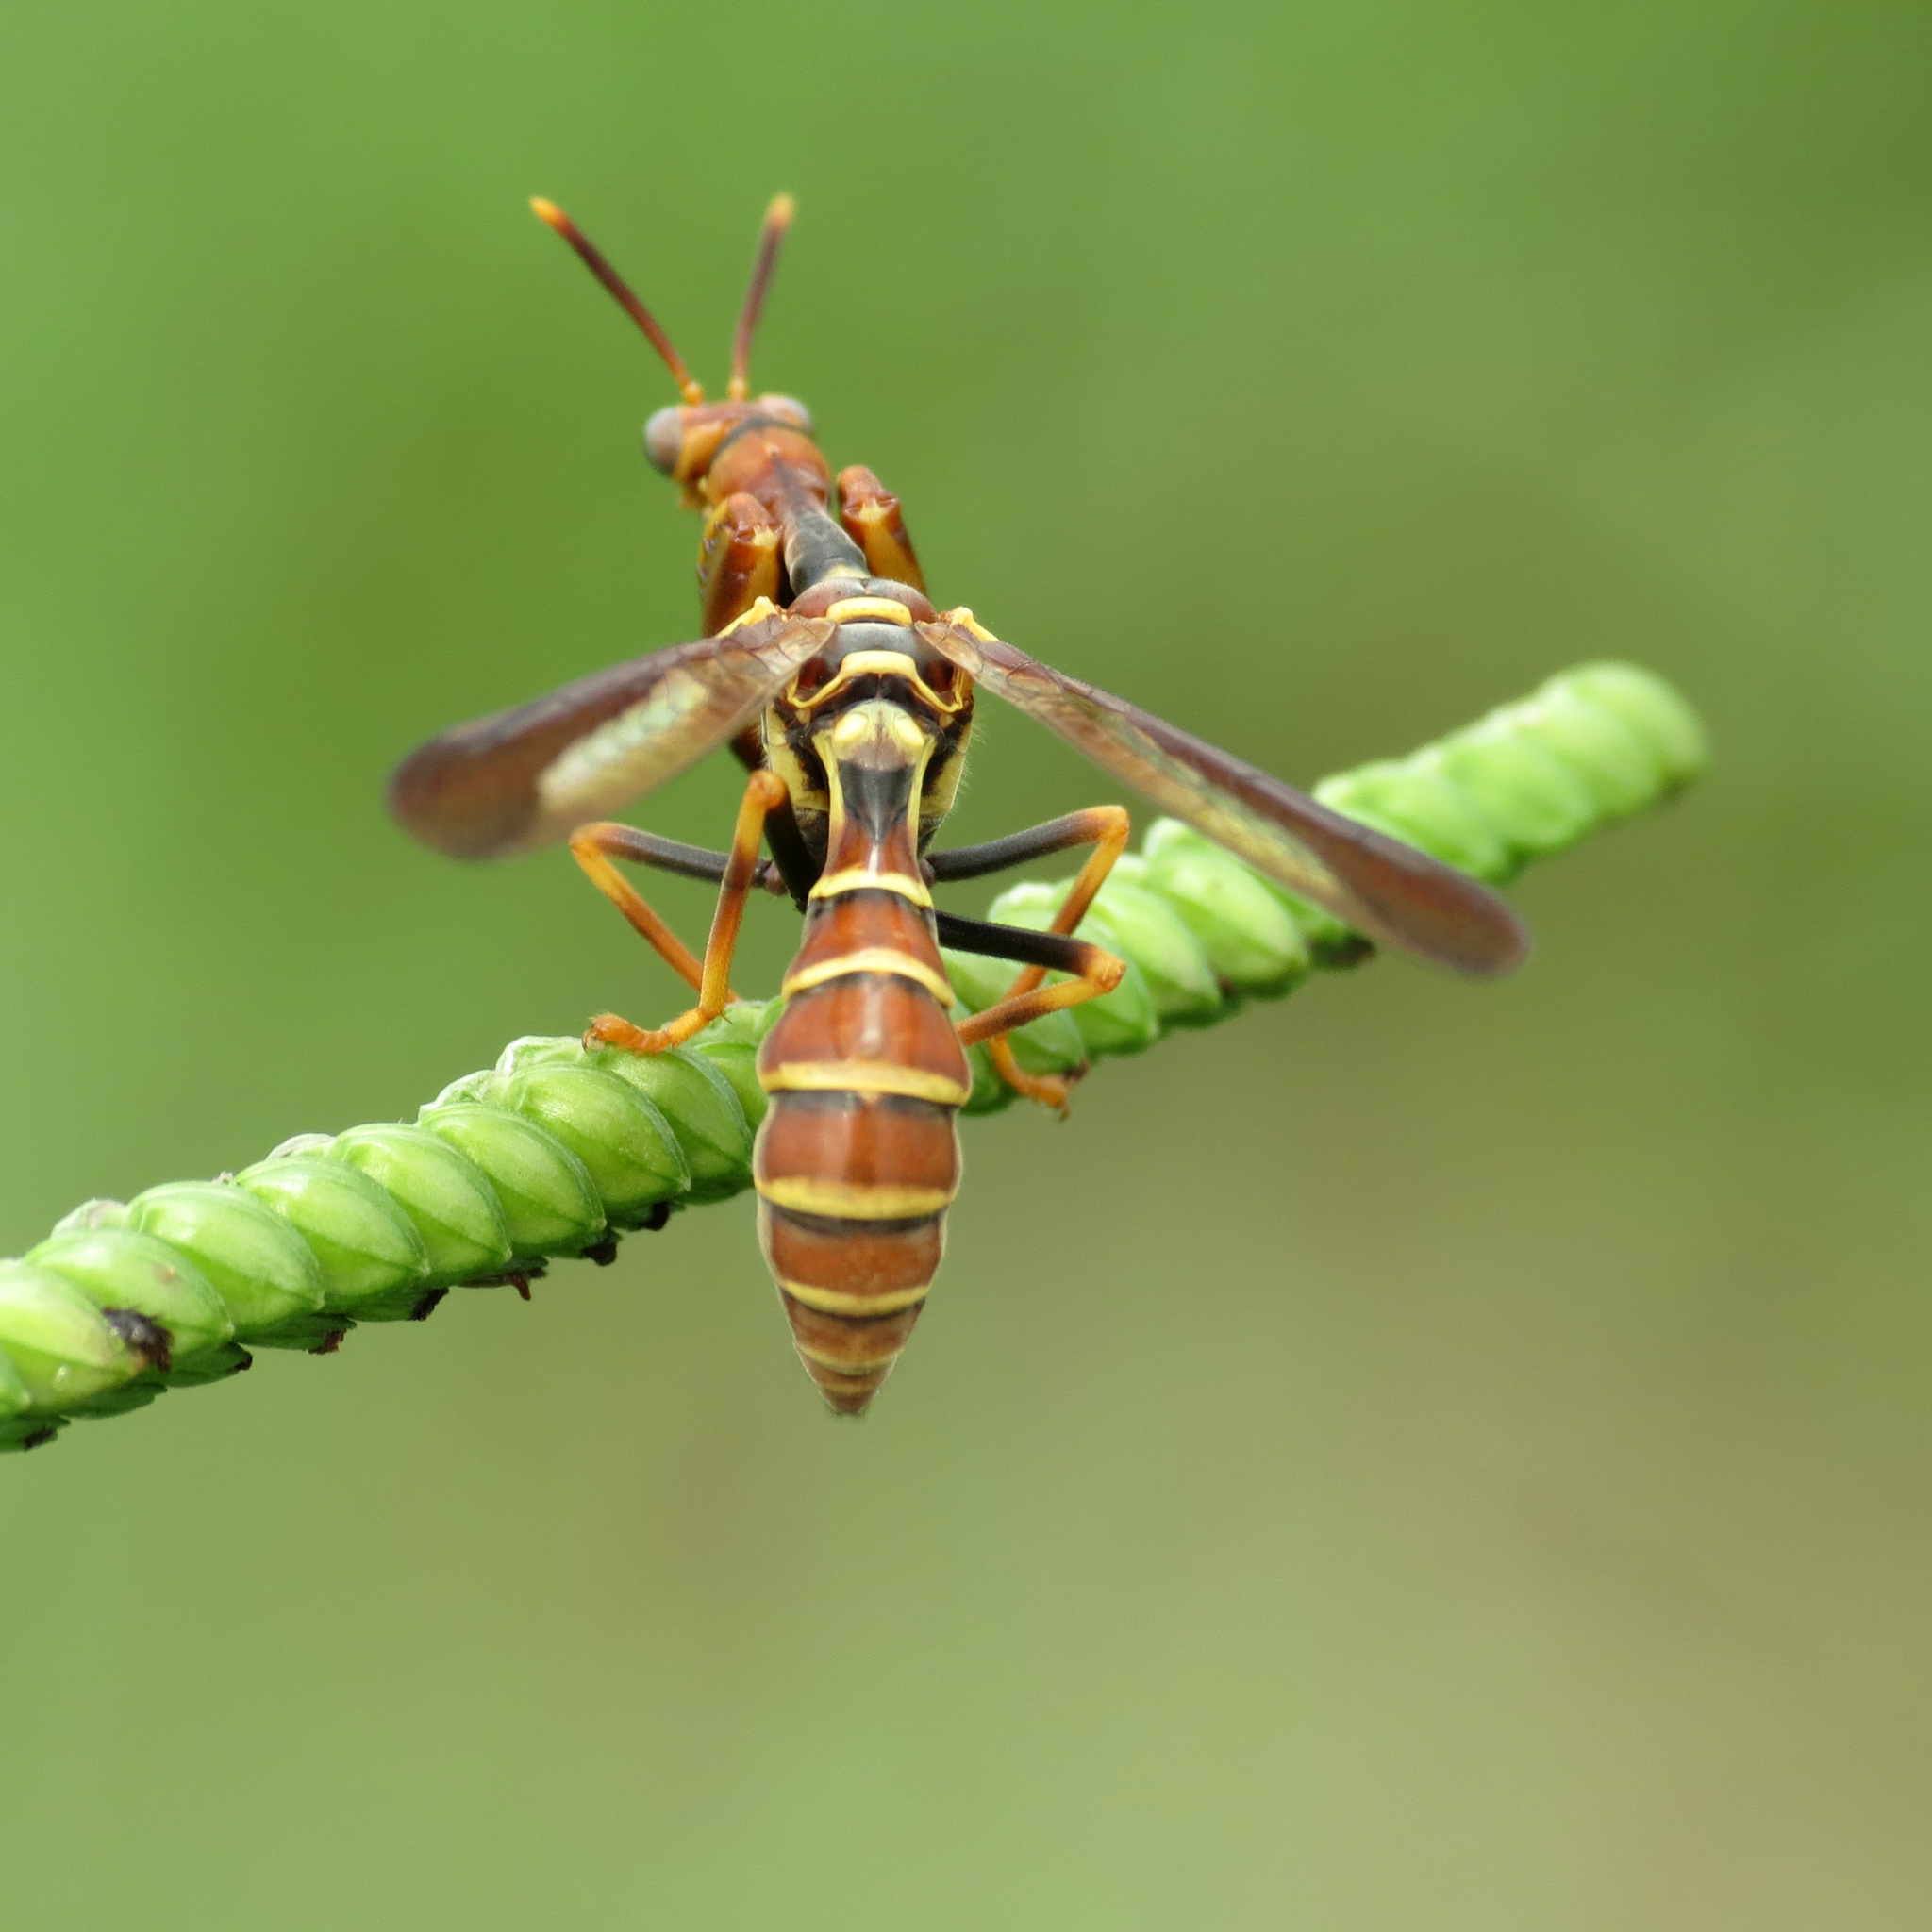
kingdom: Animalia
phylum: Arthropoda
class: Insecta
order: Neuroptera
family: Mantispidae
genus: Climaciella
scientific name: Climaciella brunnea
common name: Brown wasp mantidfly
